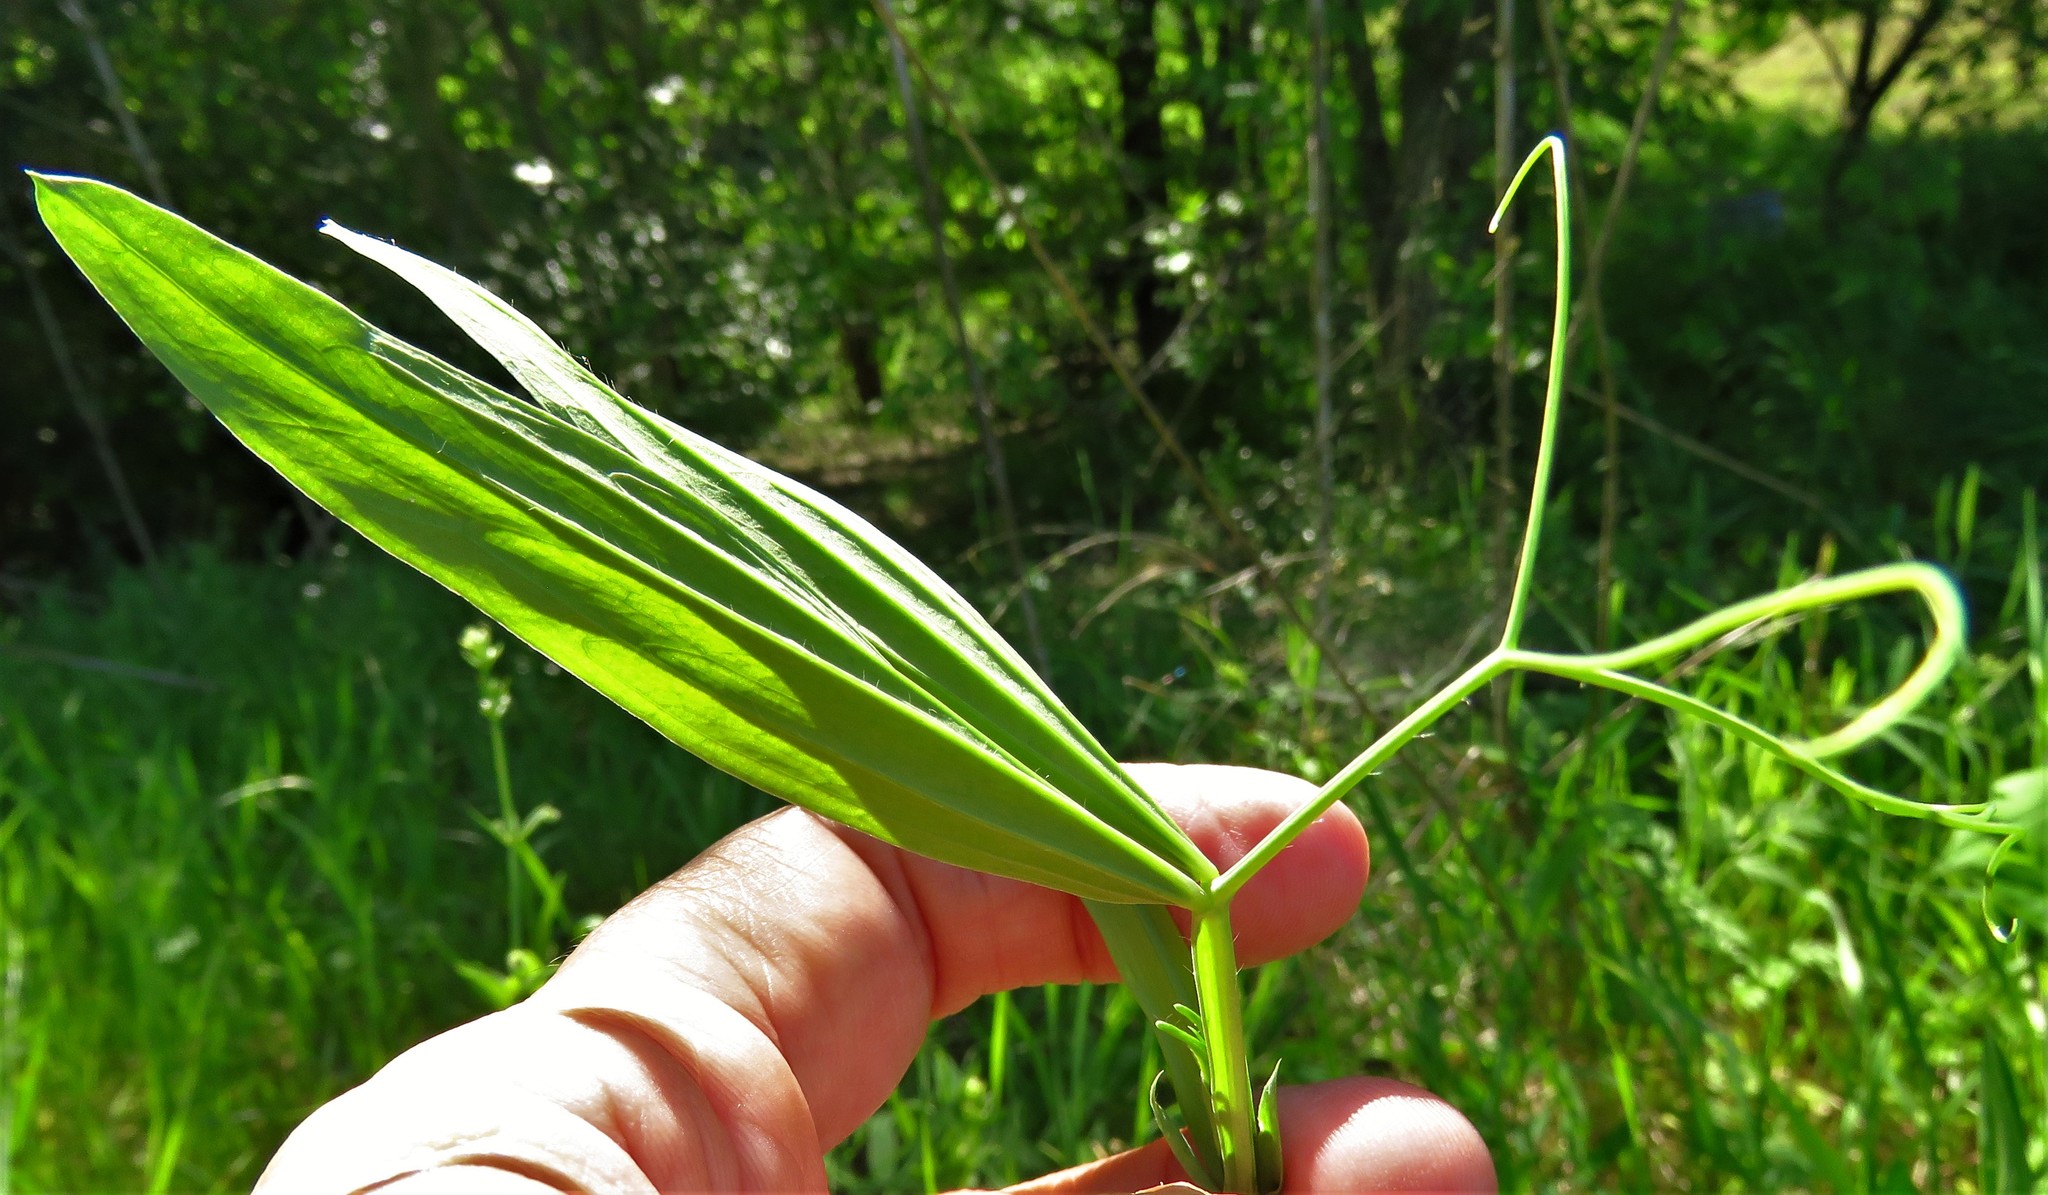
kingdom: Plantae
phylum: Tracheophyta
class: Magnoliopsida
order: Fabales
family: Fabaceae
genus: Lathyrus
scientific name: Lathyrus hirsutus
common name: Hairy vetchling
